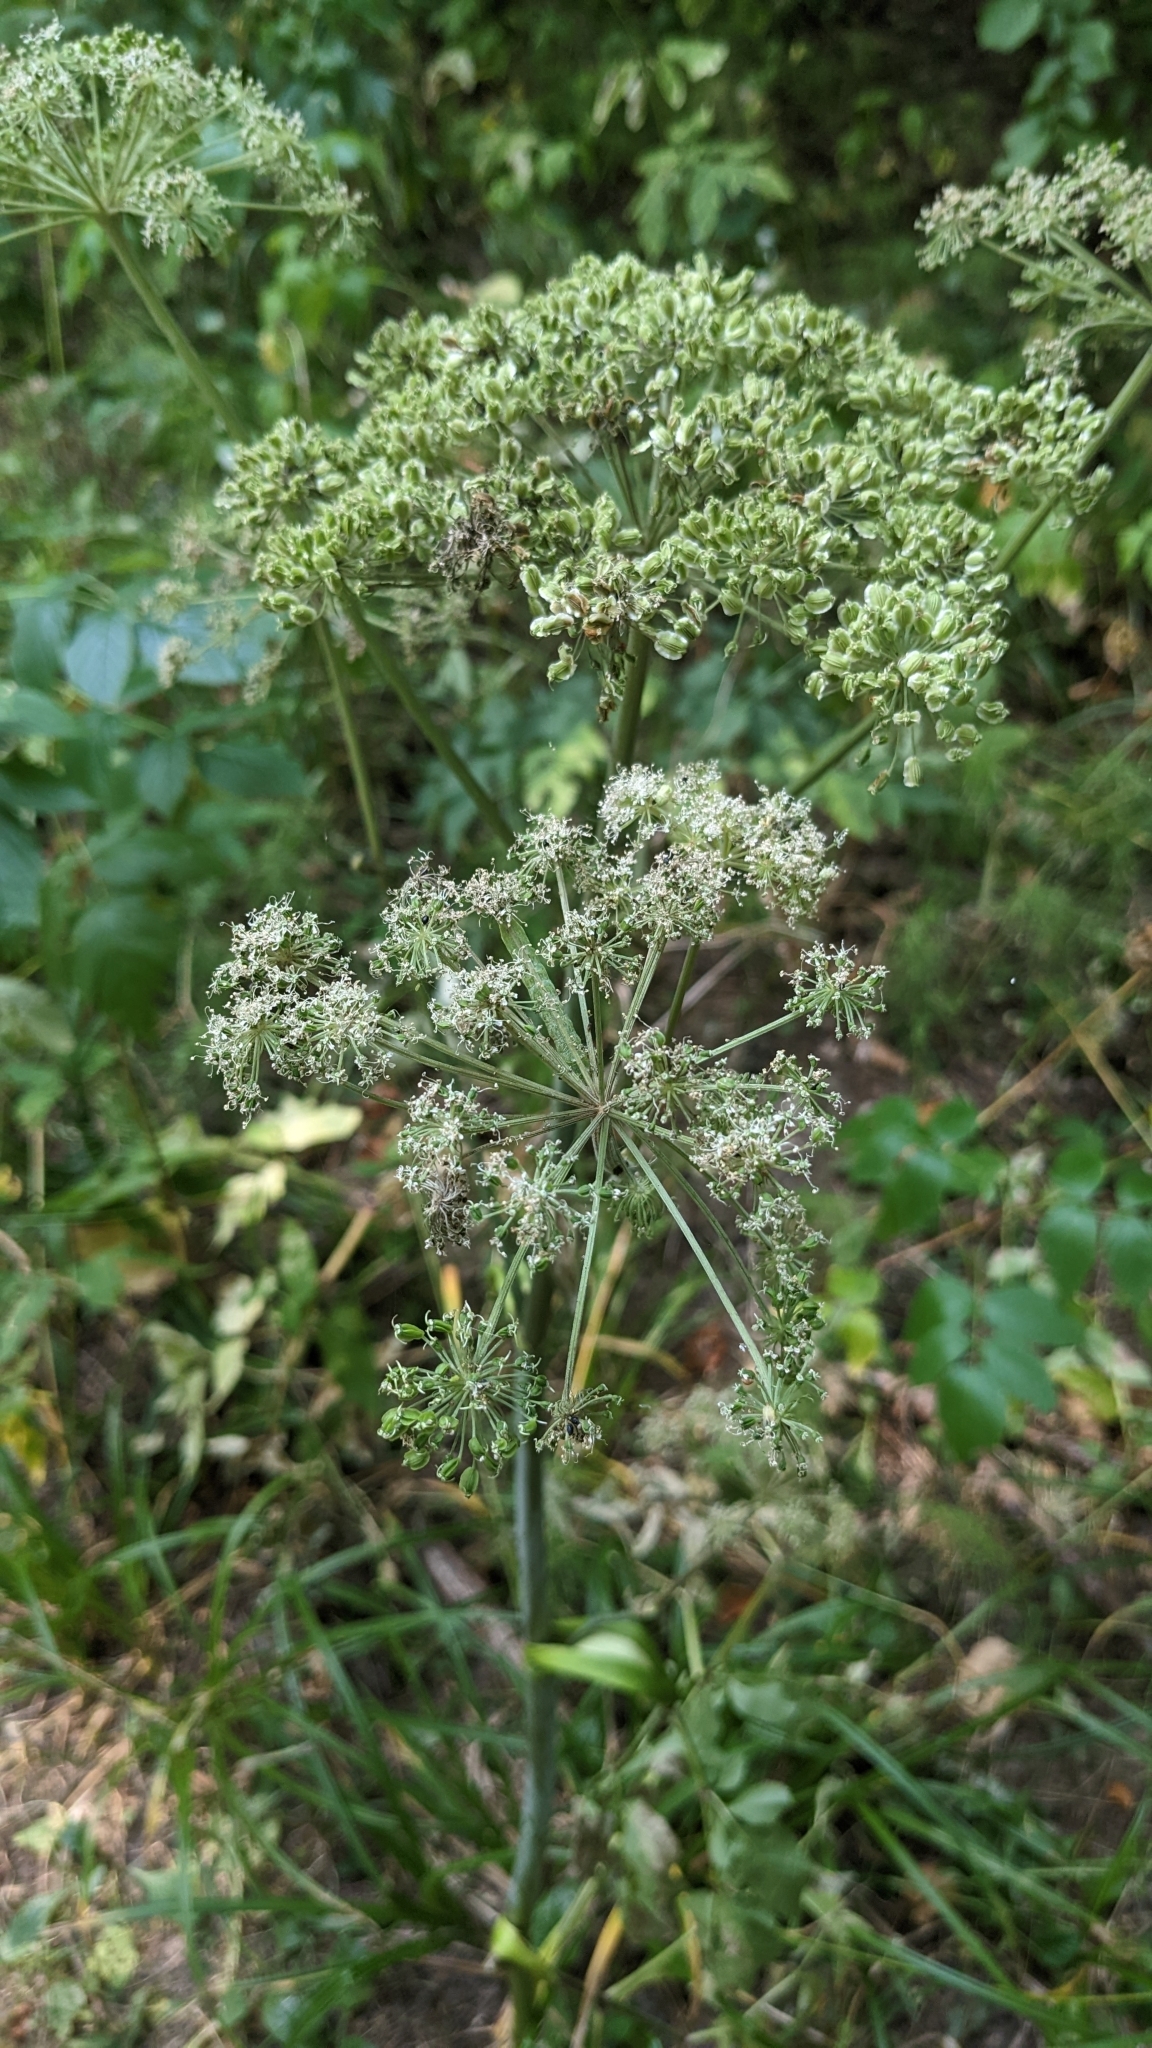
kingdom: Plantae
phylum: Tracheophyta
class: Magnoliopsida
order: Apiales
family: Apiaceae
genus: Angelica
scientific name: Angelica sylvestris
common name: Wild angelica
